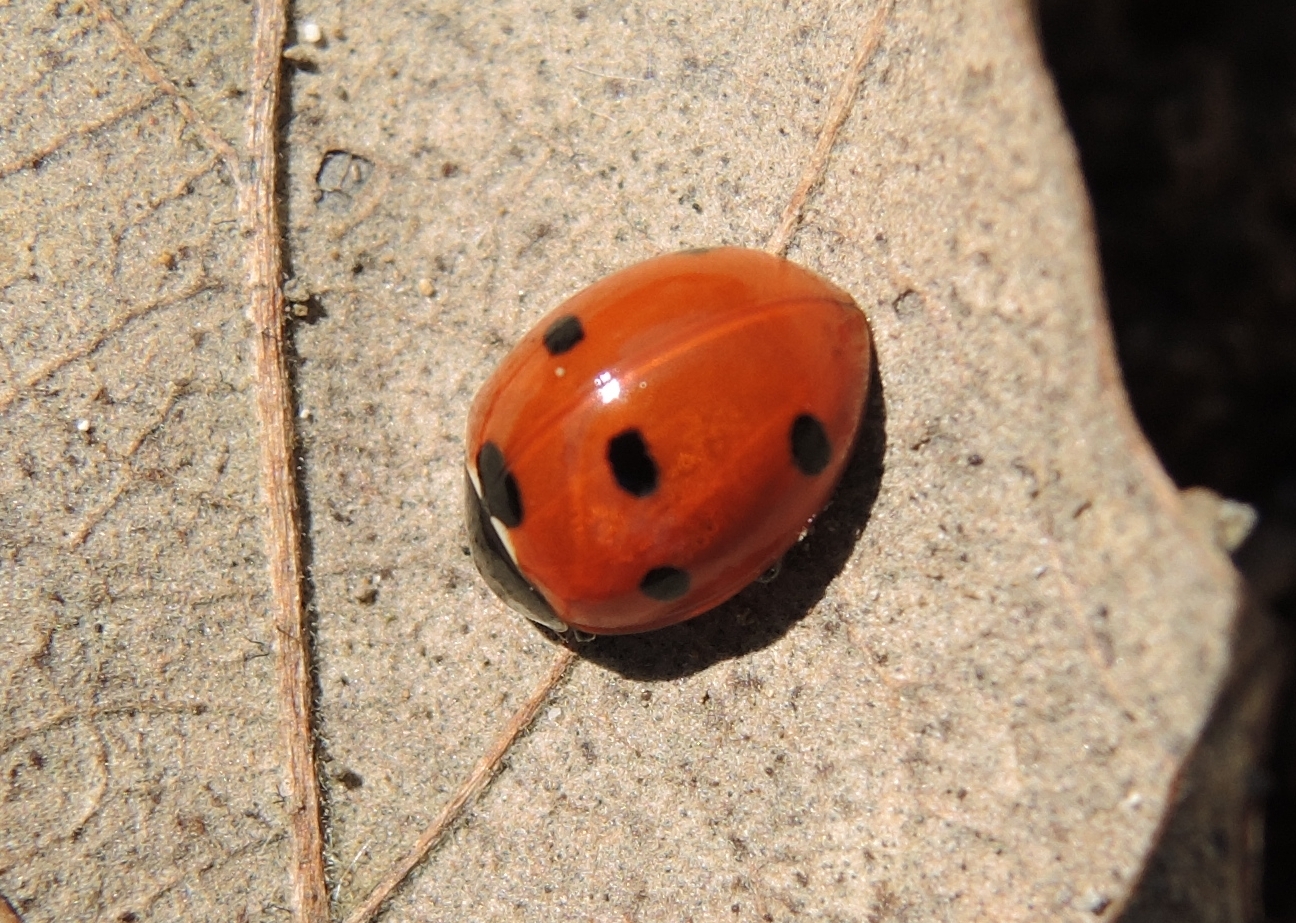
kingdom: Animalia
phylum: Arthropoda
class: Insecta
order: Coleoptera
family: Coccinellidae
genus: Coccinella
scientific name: Coccinella septempunctata
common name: Sevenspotted lady beetle
